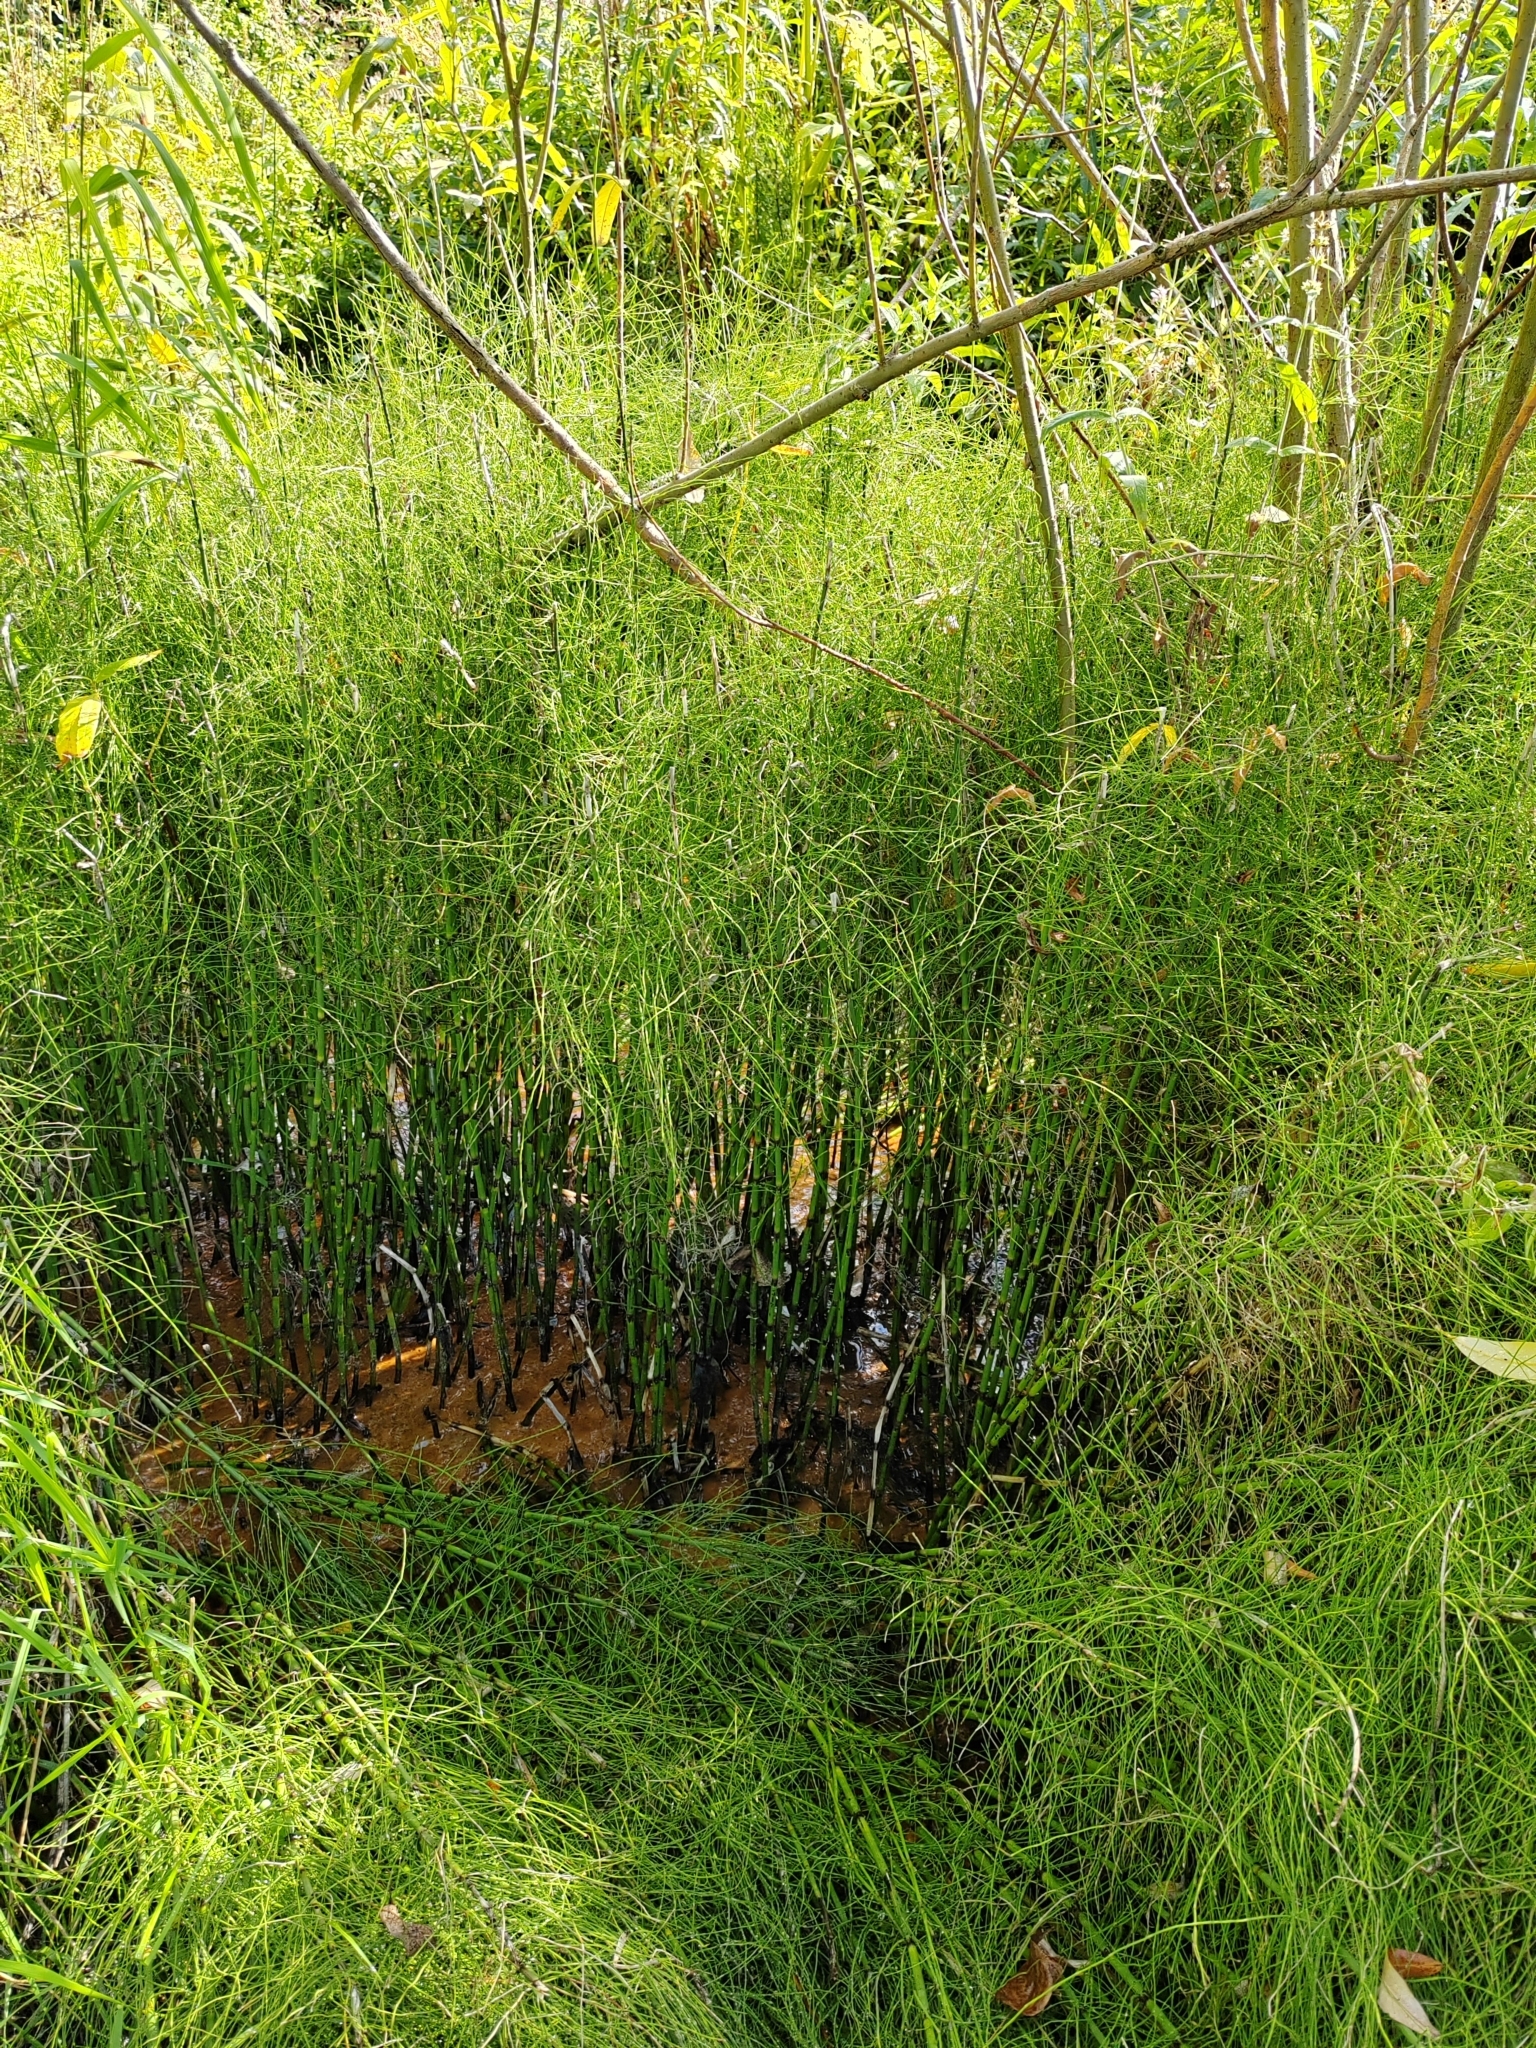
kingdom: Plantae
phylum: Tracheophyta
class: Polypodiopsida
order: Equisetales
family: Equisetaceae
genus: Equisetum
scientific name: Equisetum fluviatile
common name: Water horsetail
